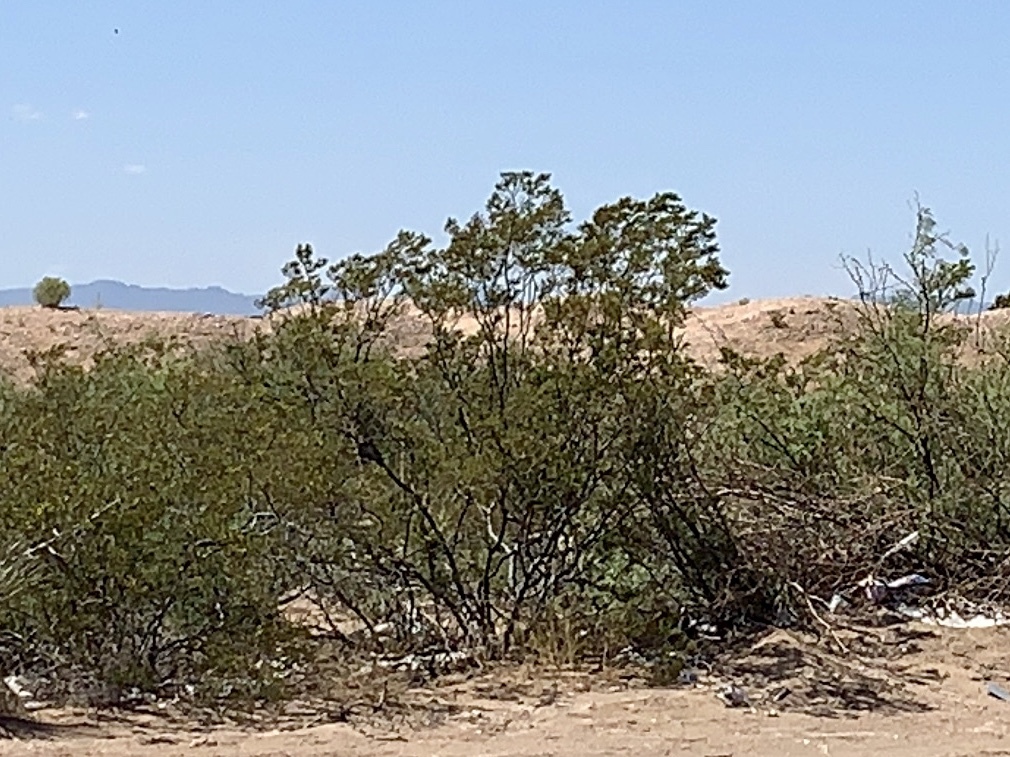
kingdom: Plantae
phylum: Tracheophyta
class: Magnoliopsida
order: Zygophyllales
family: Zygophyllaceae
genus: Larrea
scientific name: Larrea tridentata
